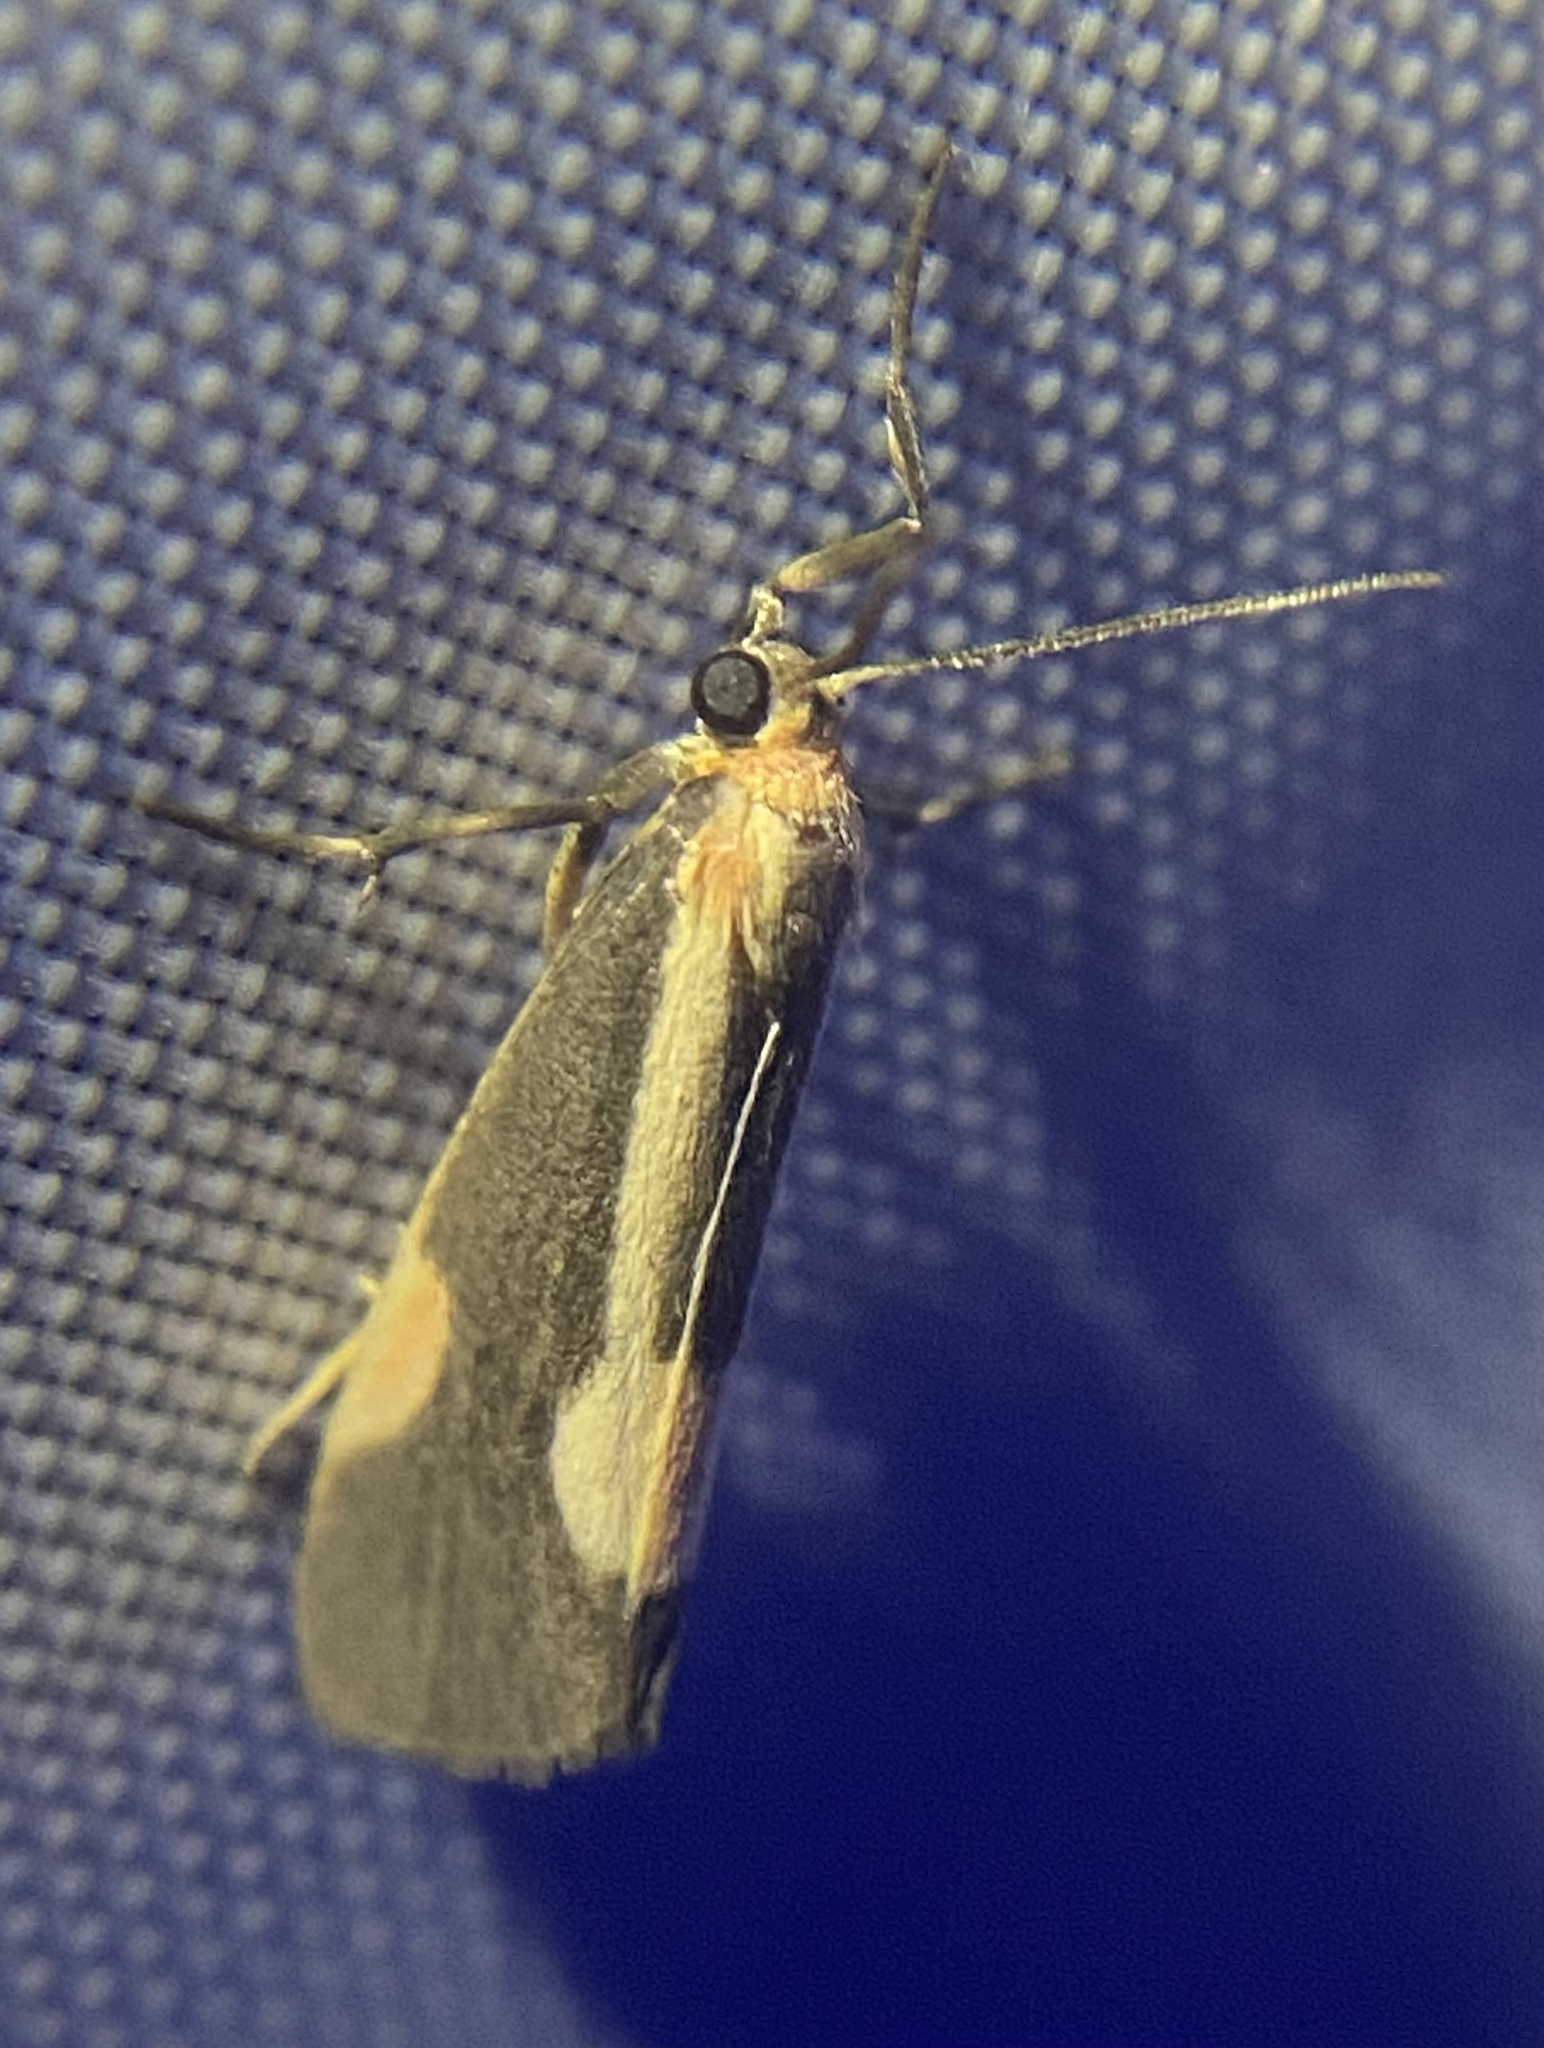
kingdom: Animalia
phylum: Arthropoda
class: Insecta
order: Lepidoptera
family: Erebidae
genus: Cisthene
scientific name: Cisthene packardii
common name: Packard's lichen moth
